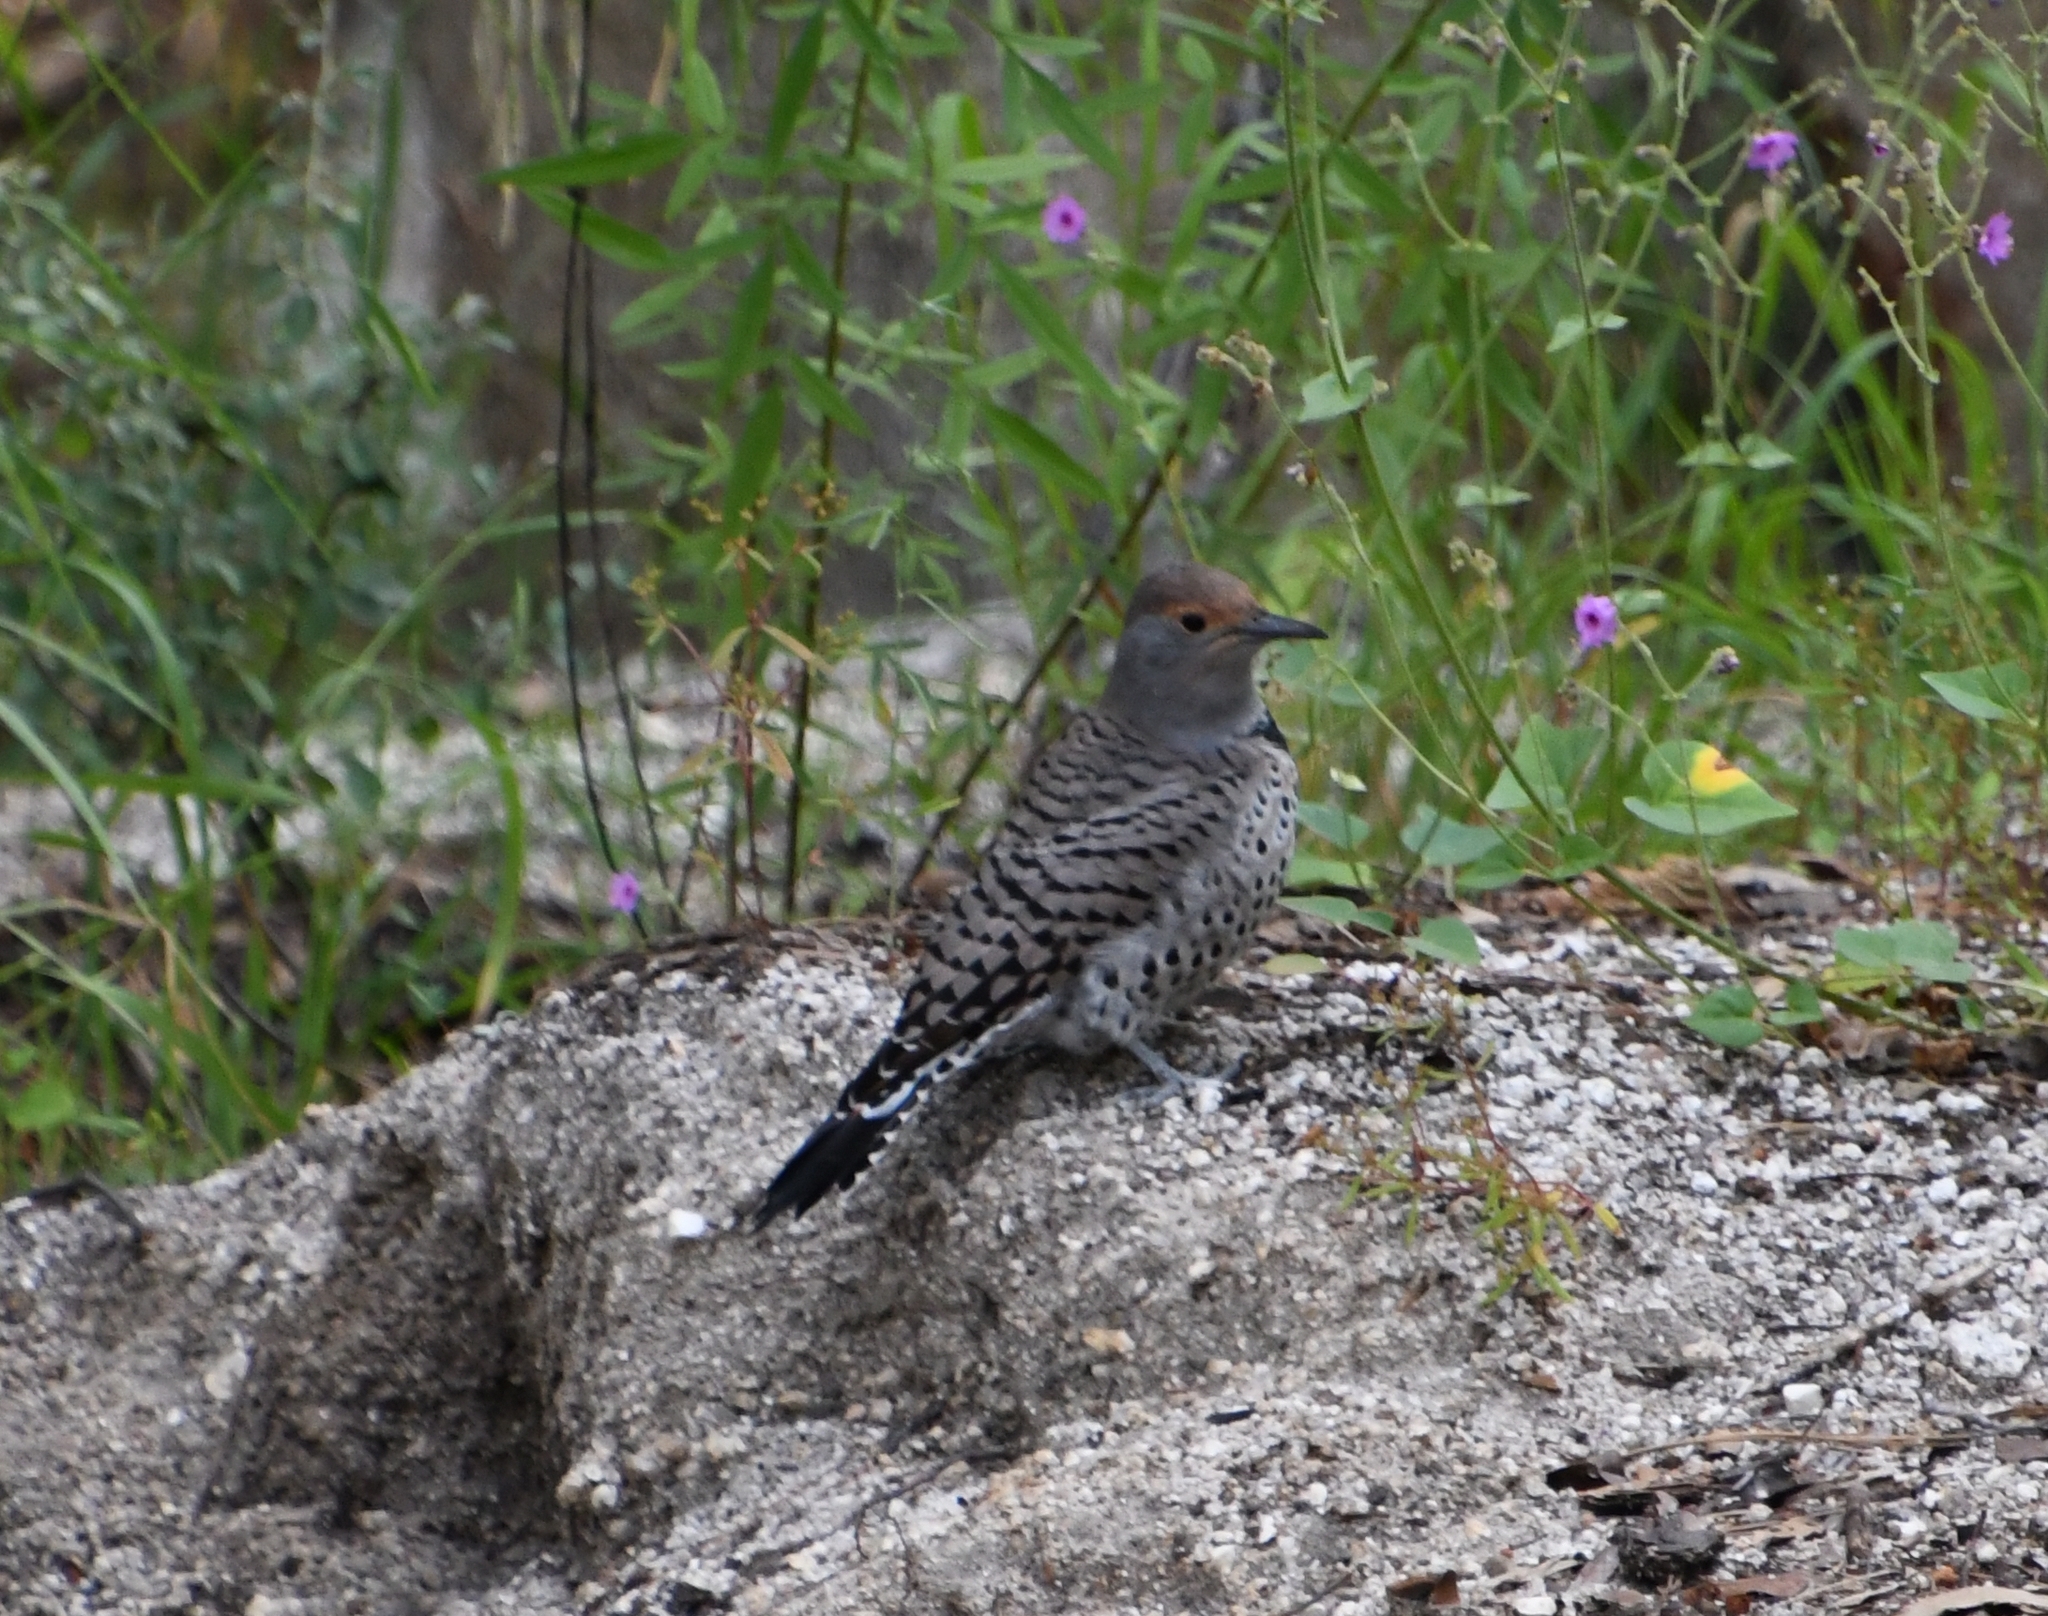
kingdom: Animalia
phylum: Chordata
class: Aves
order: Piciformes
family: Picidae
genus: Colaptes
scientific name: Colaptes auratus
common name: Northern flicker
